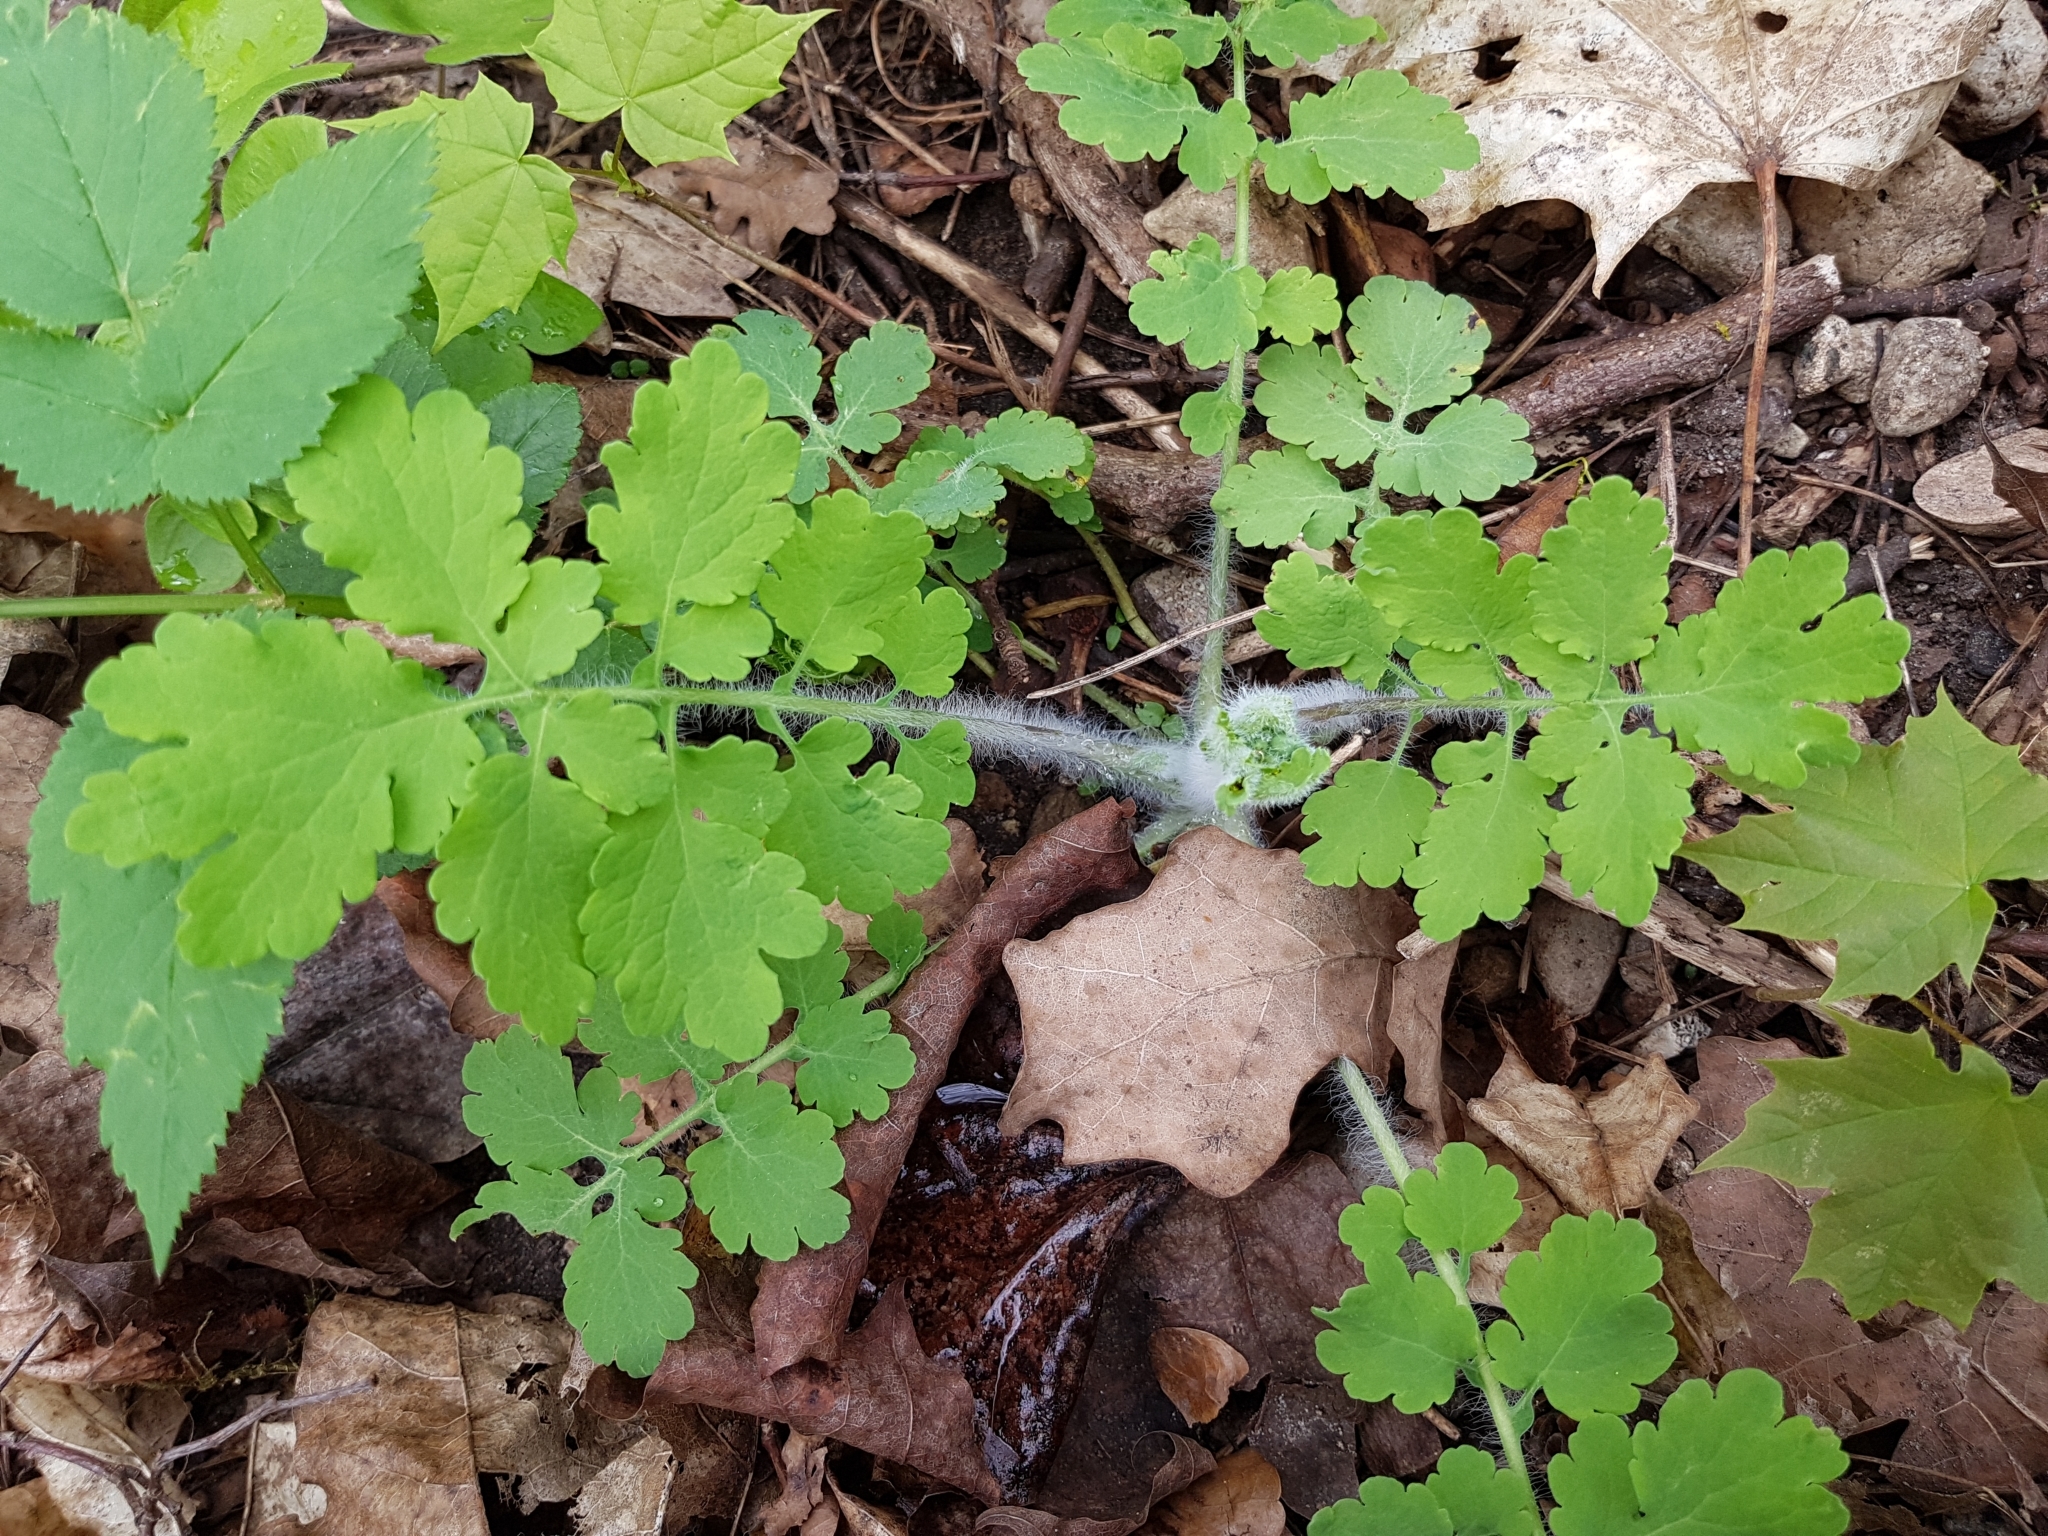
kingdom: Plantae
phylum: Tracheophyta
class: Magnoliopsida
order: Ranunculales
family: Papaveraceae
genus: Chelidonium
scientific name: Chelidonium majus
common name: Greater celandine
